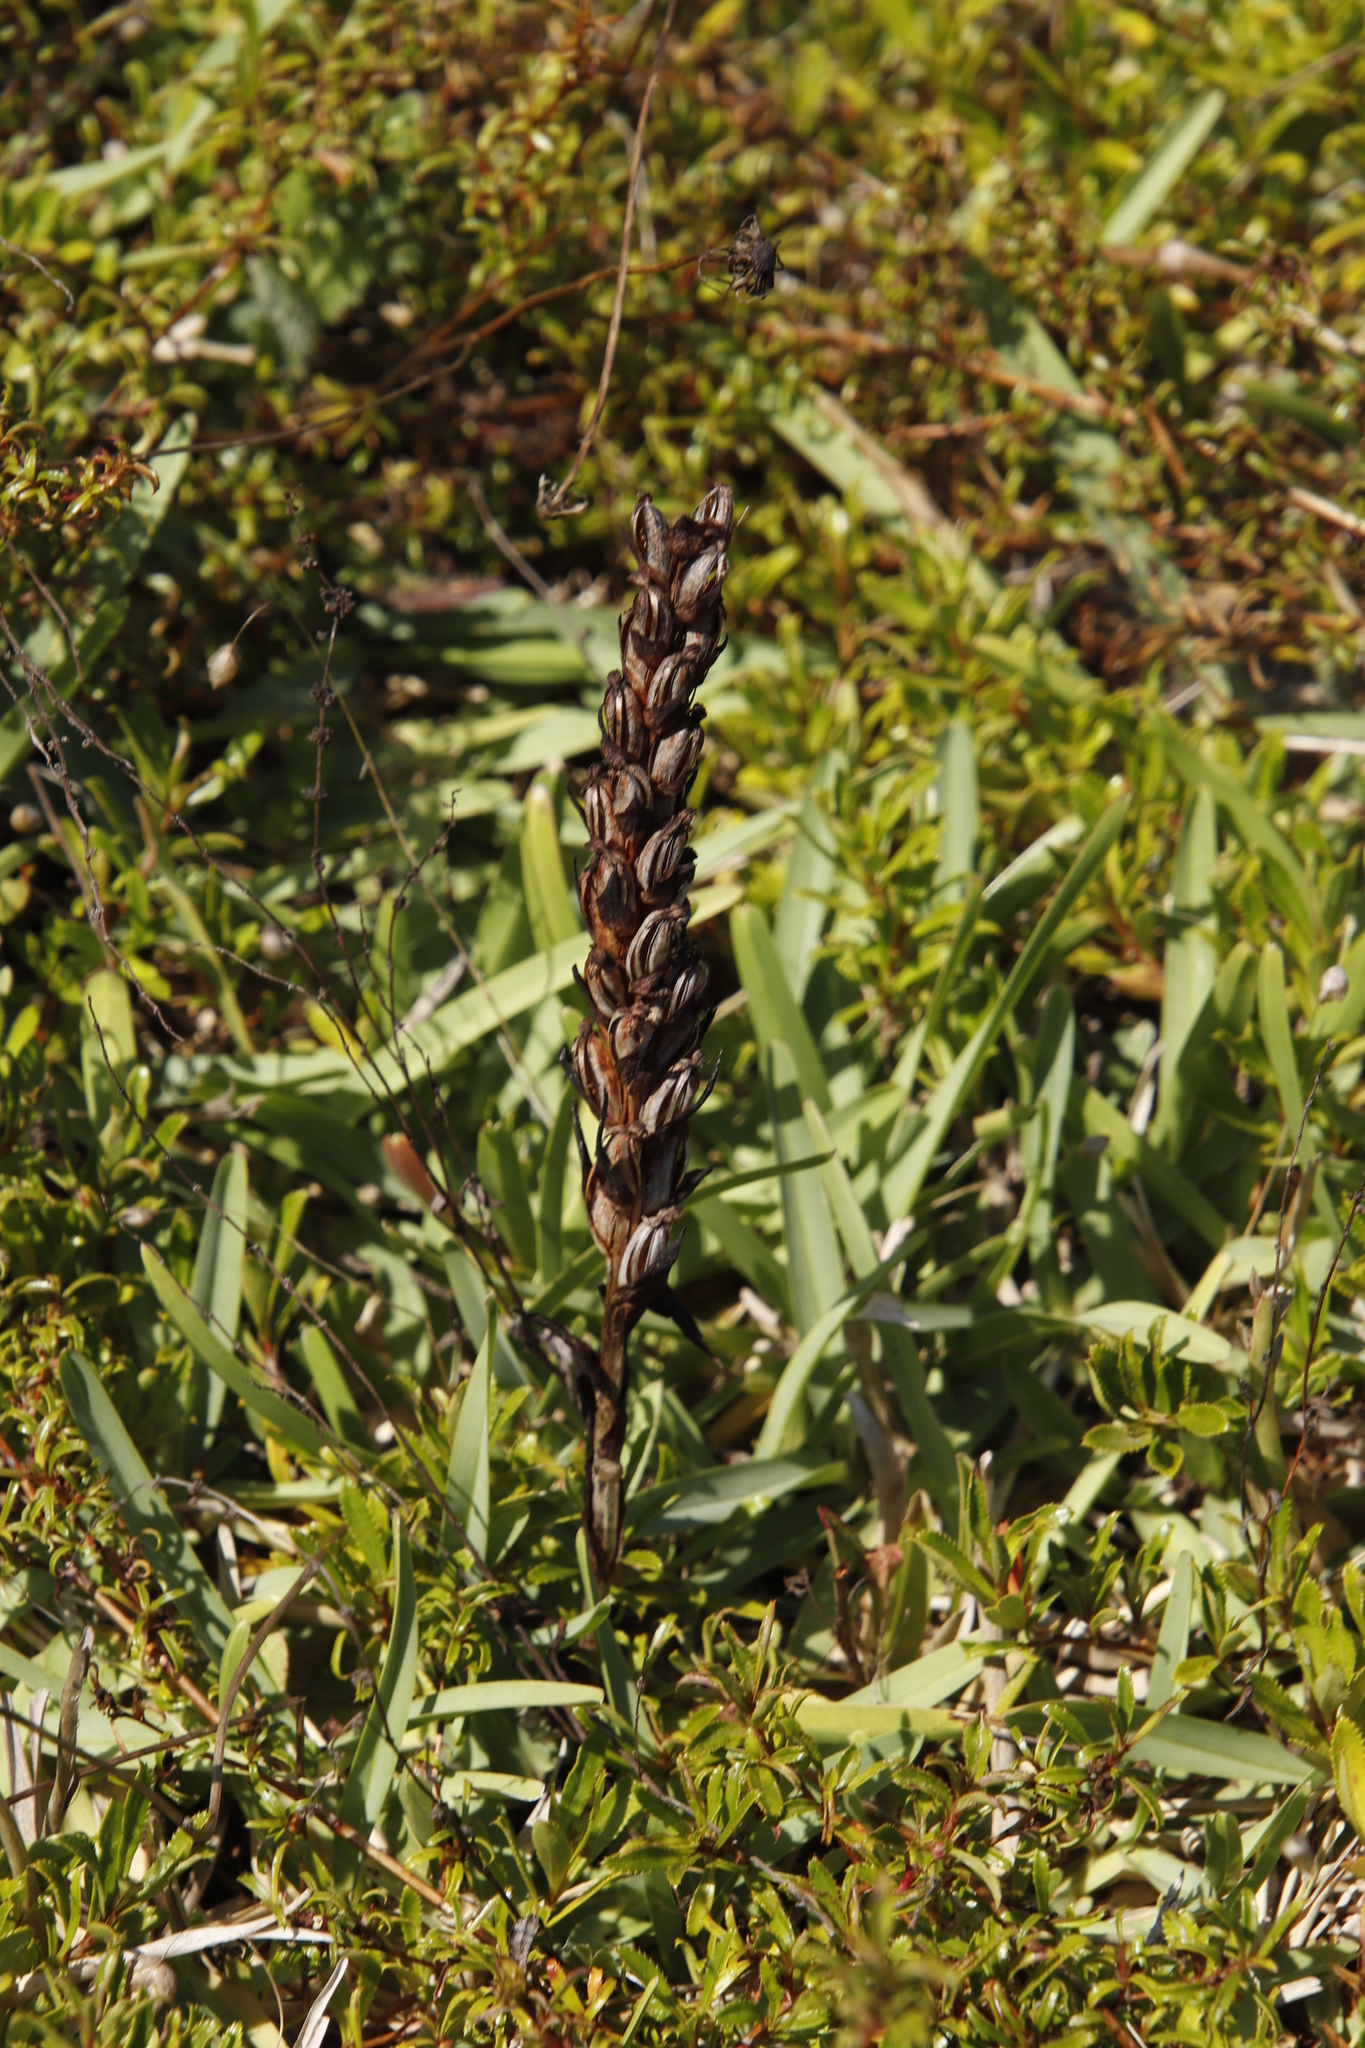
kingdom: Plantae
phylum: Tracheophyta
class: Liliopsida
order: Asparagales
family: Orchidaceae
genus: Disa
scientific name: Disa bracteata
